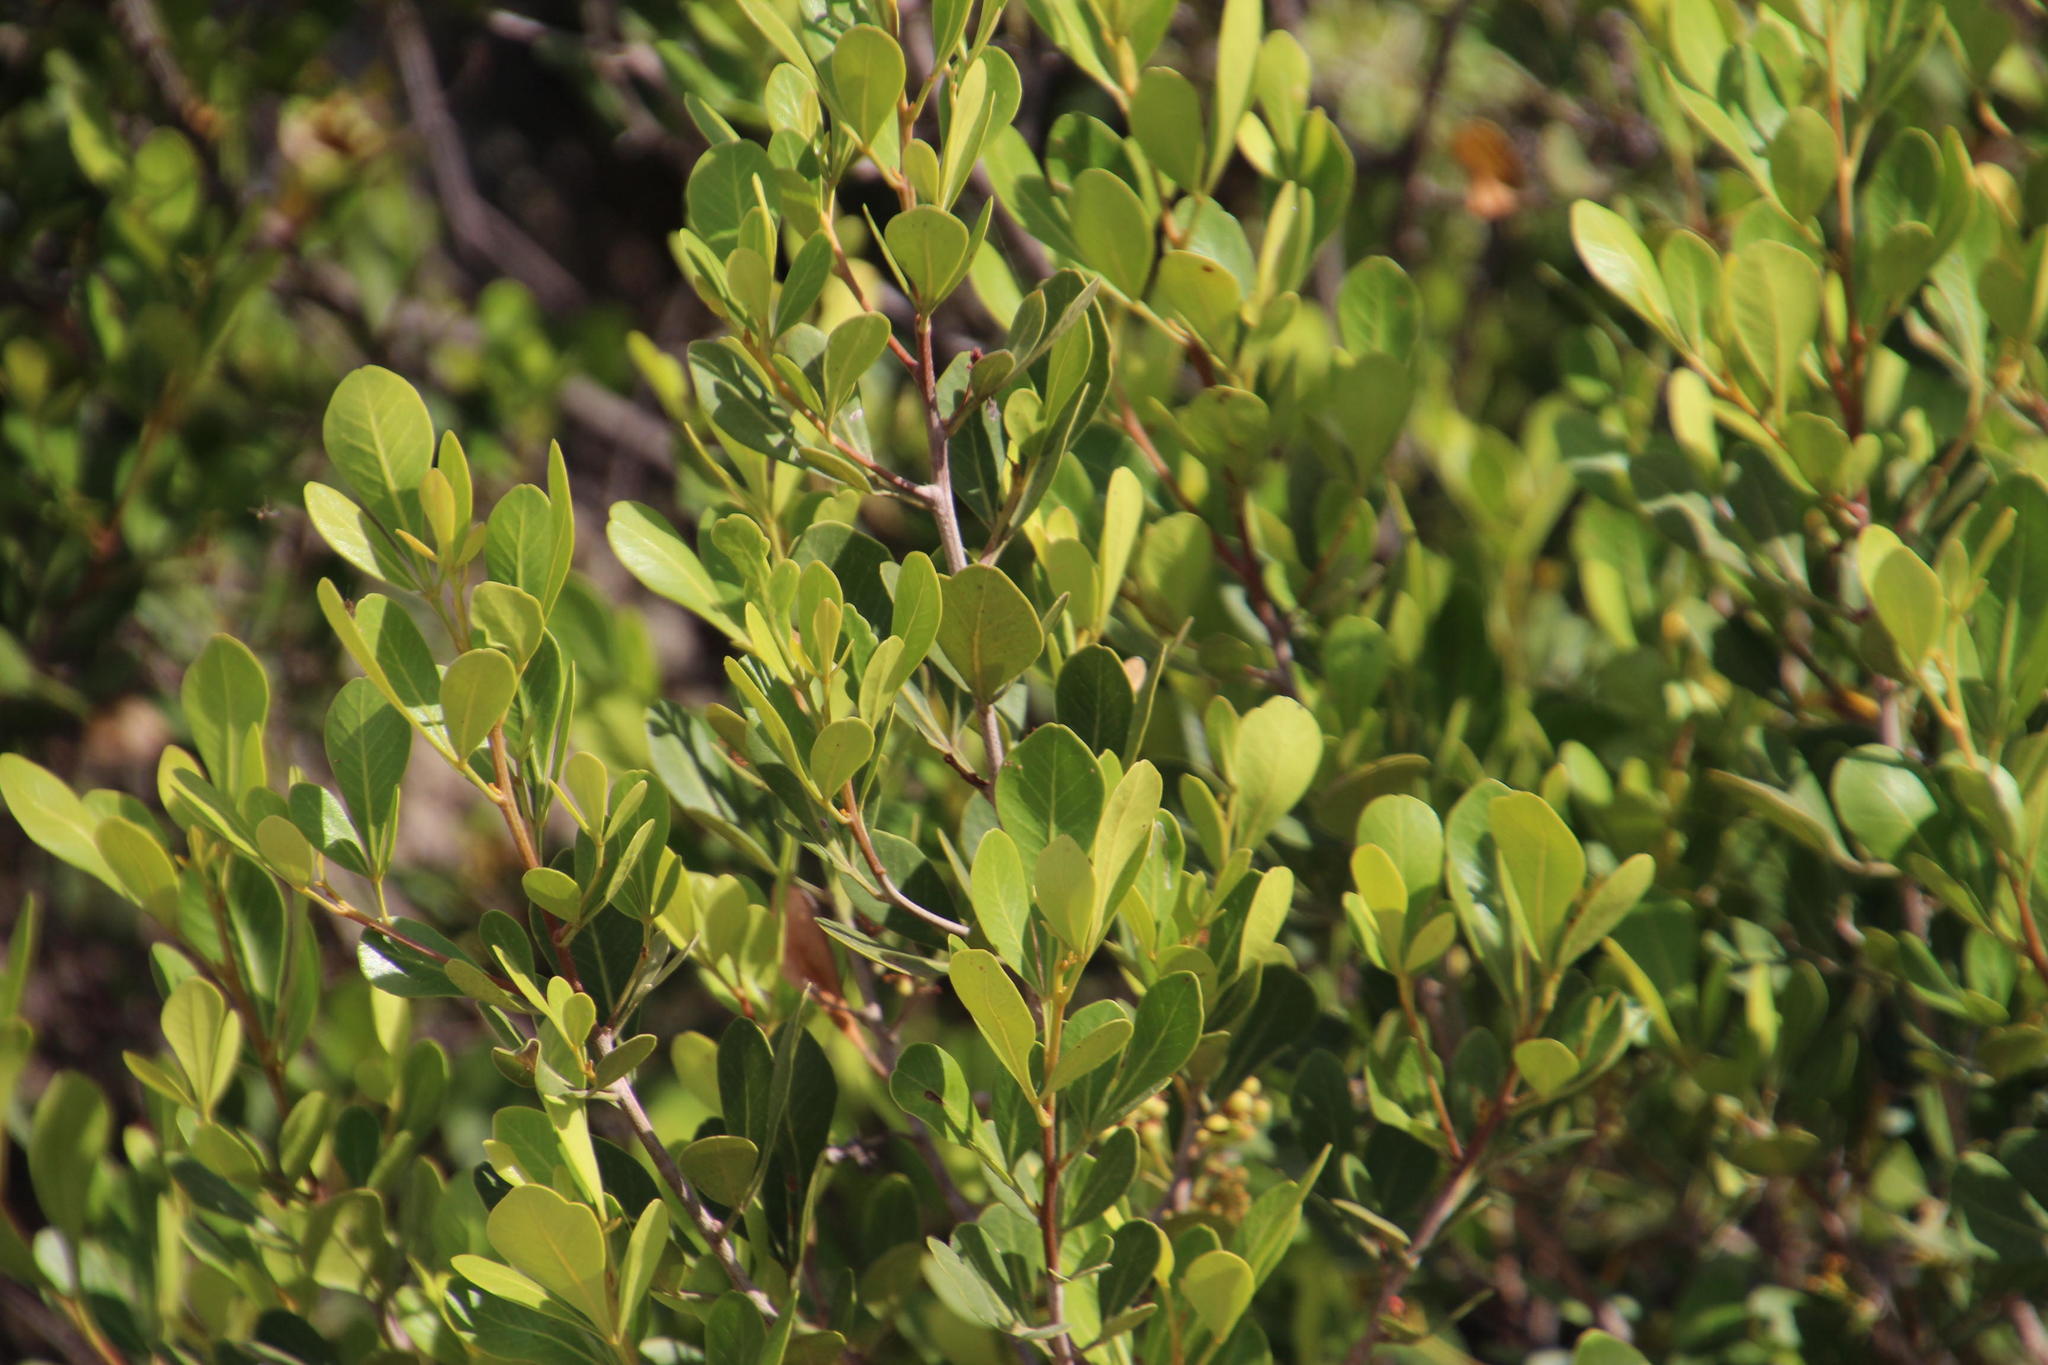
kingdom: Plantae
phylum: Tracheophyta
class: Magnoliopsida
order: Sapindales
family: Anacardiaceae
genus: Searsia
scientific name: Searsia lucida
